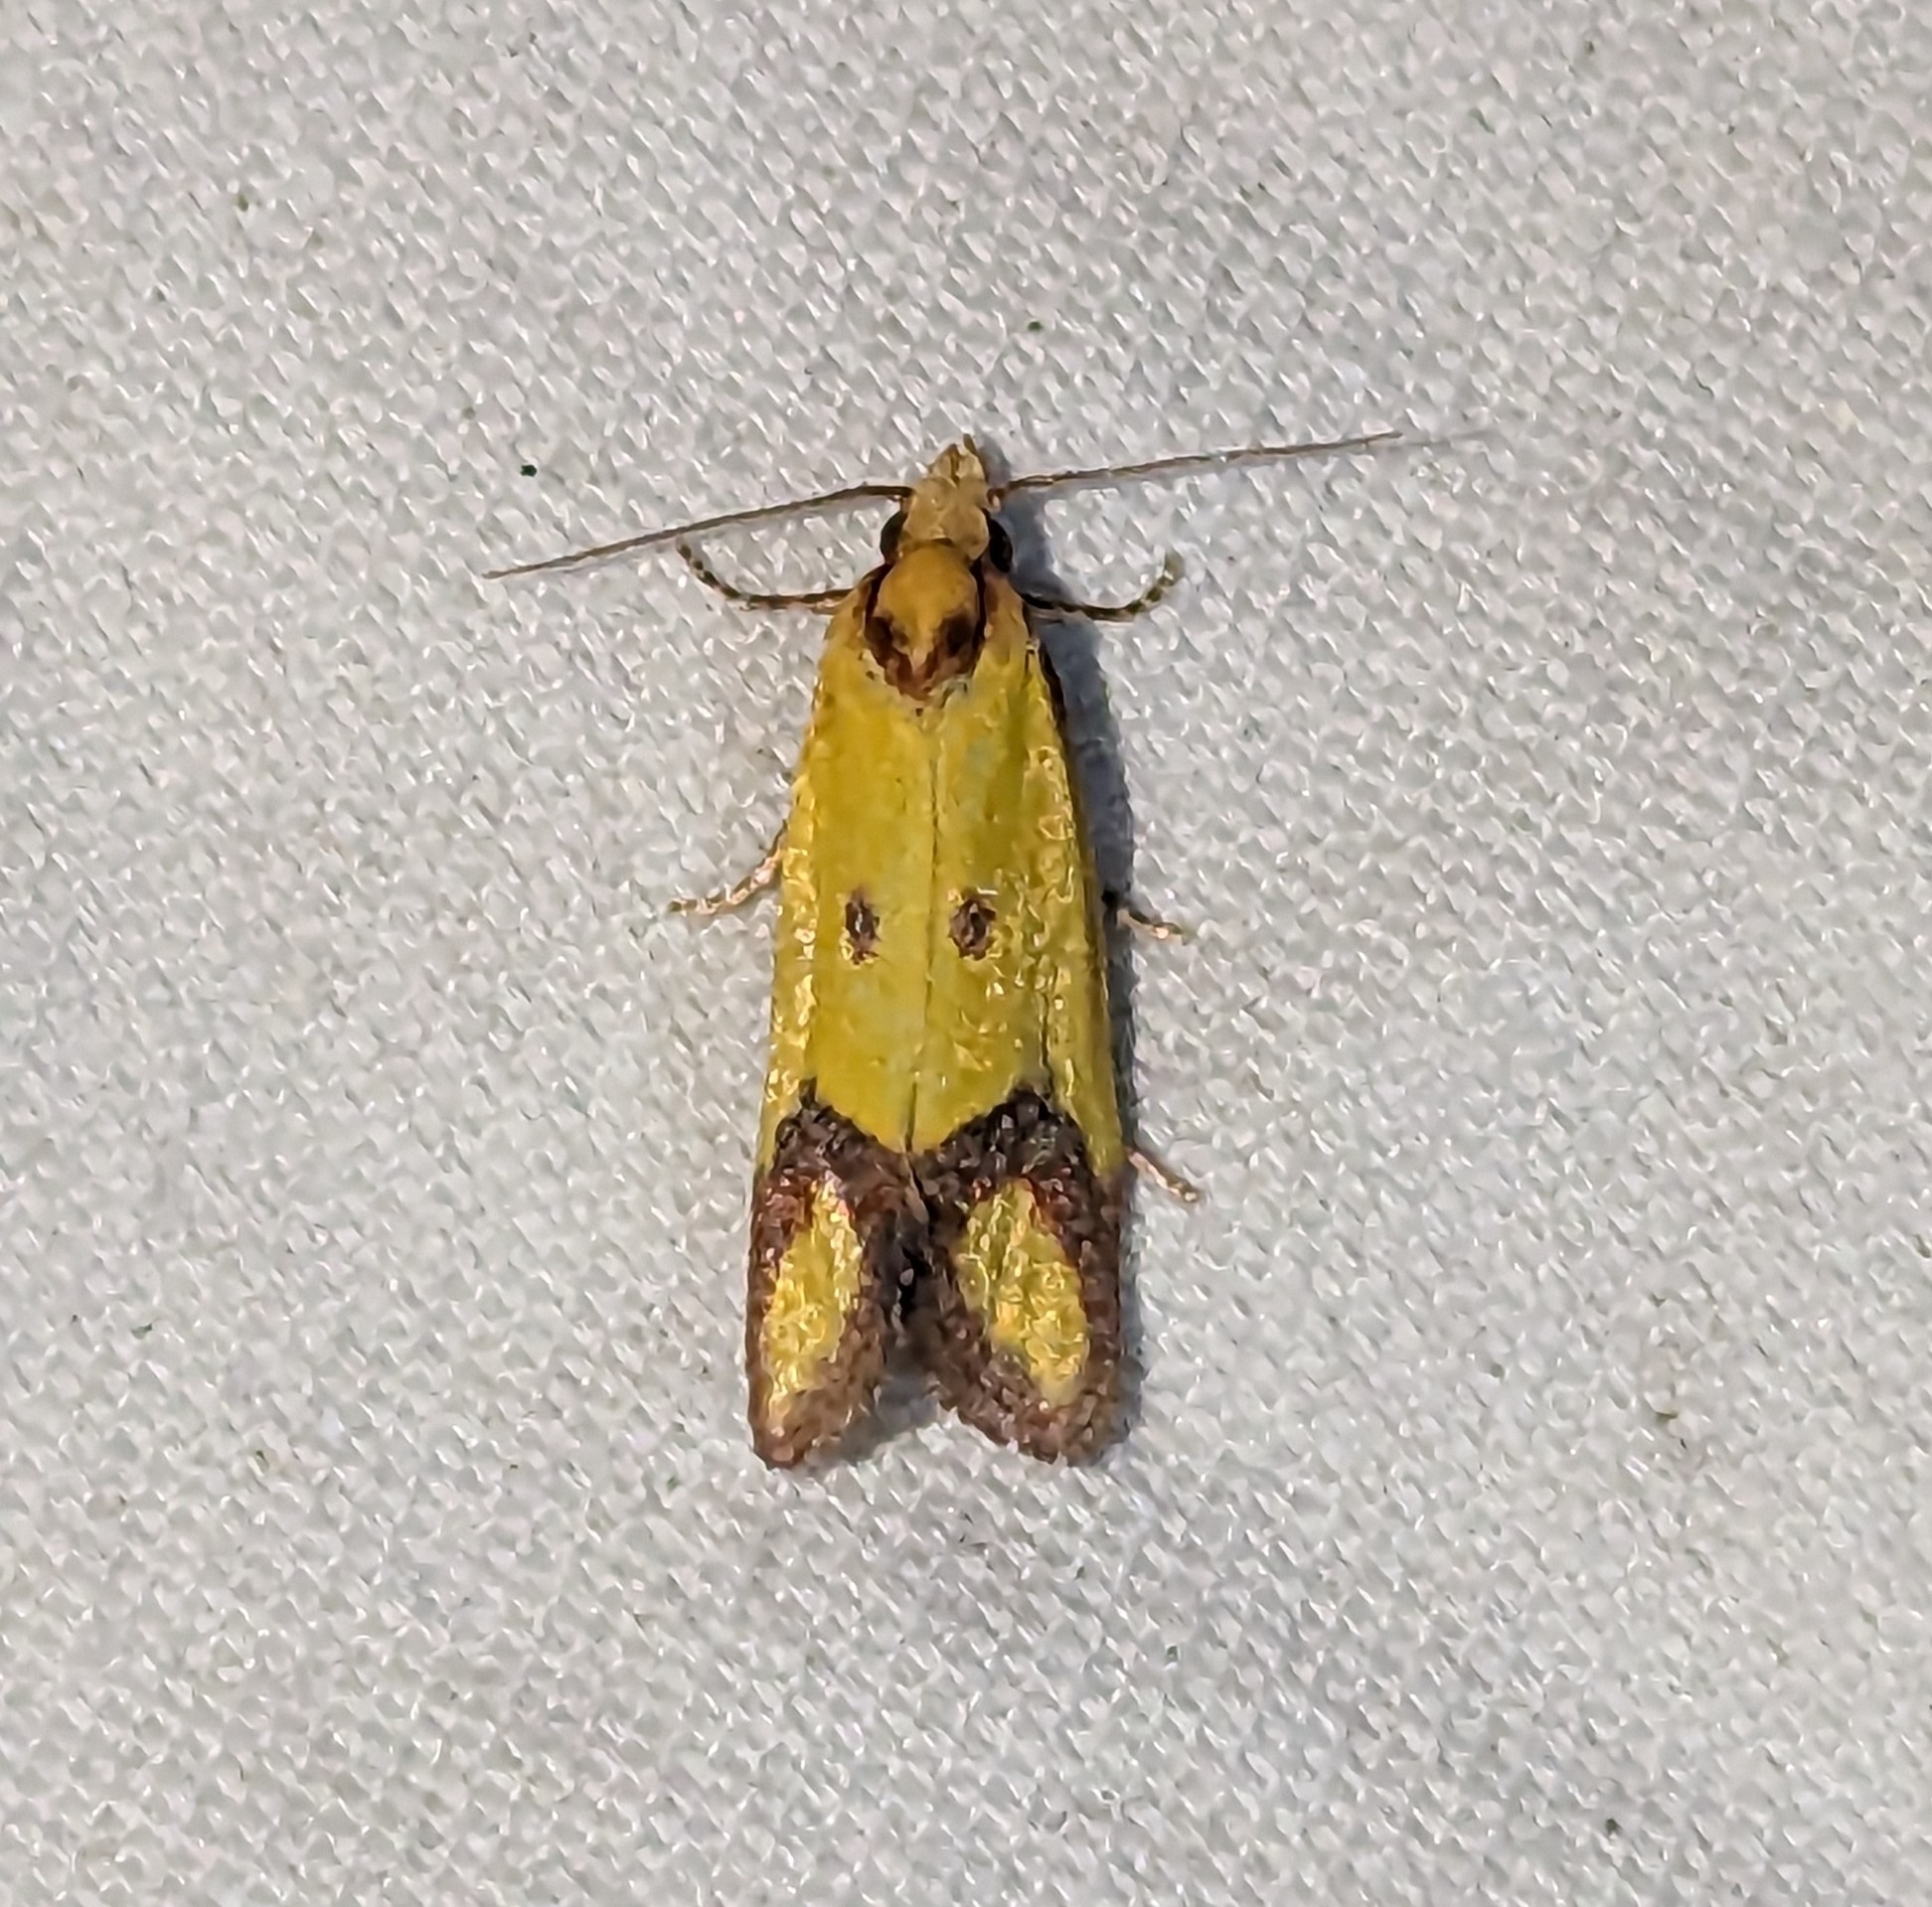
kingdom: Animalia
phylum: Arthropoda
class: Insecta
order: Lepidoptera
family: Tortricidae
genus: Agapeta
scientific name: Agapeta zoegana
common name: Sulfur knapweed root moth
